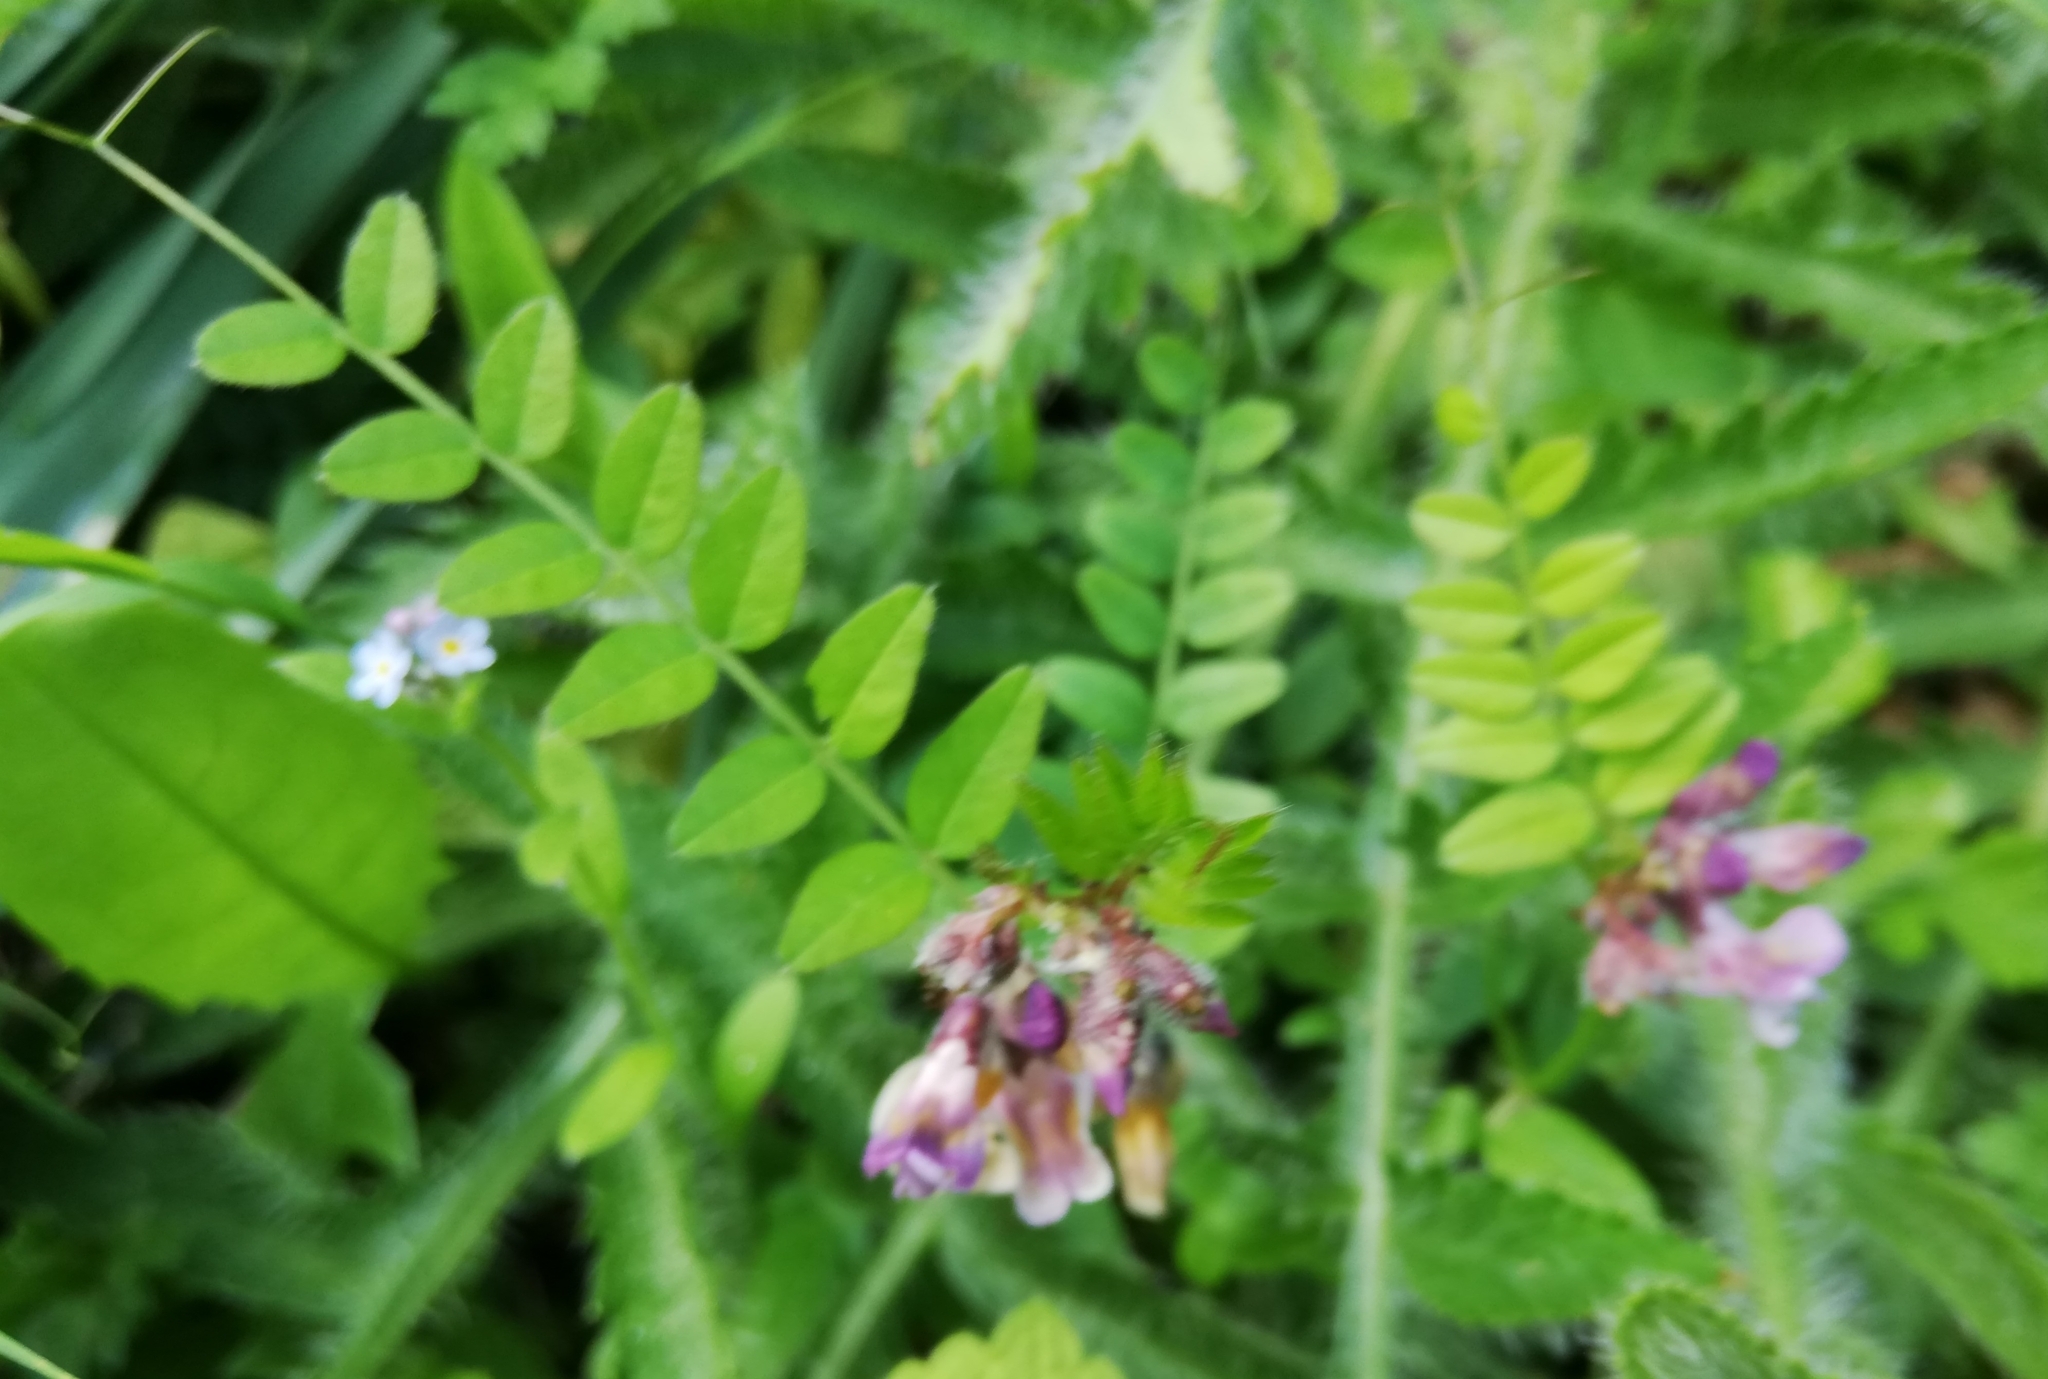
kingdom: Plantae
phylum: Tracheophyta
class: Magnoliopsida
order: Fabales
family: Fabaceae
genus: Vicia
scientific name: Vicia sepium
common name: Bush vetch
